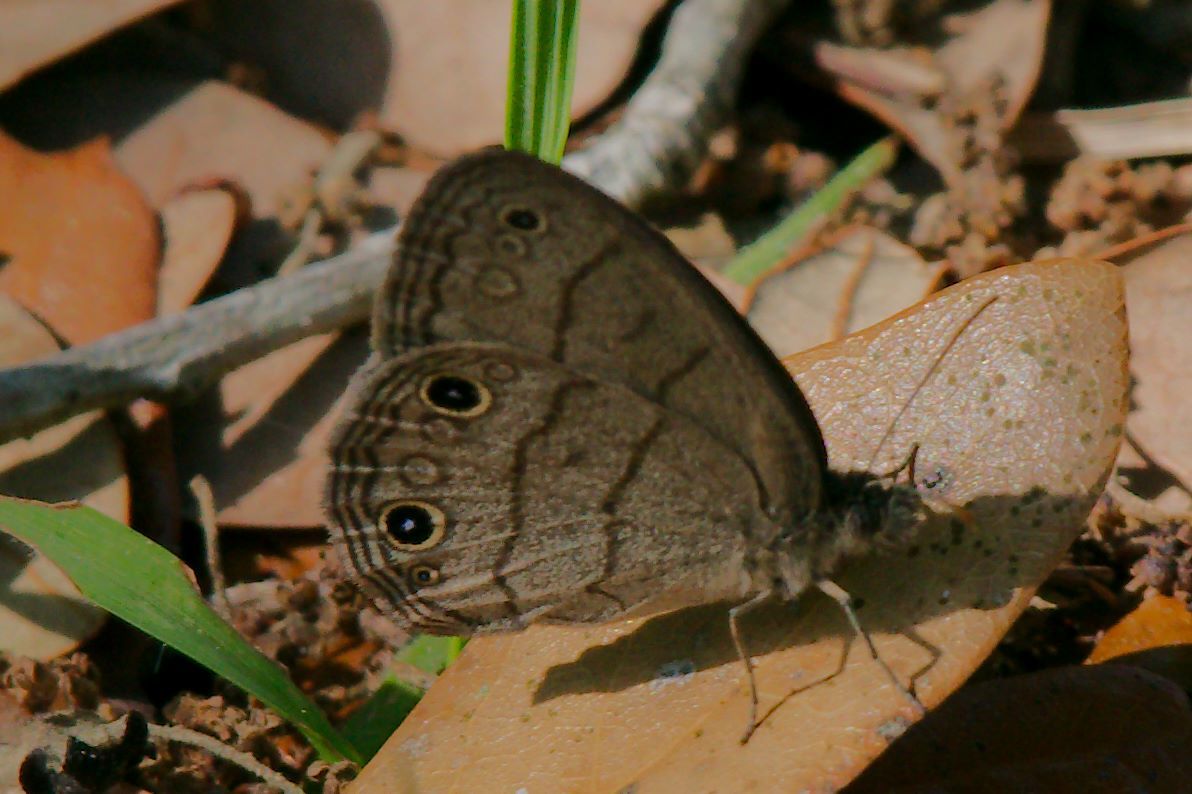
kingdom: Animalia
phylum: Arthropoda
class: Insecta
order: Lepidoptera
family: Nymphalidae
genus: Hermeuptychia
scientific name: Hermeuptychia hermes
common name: Hermes satyr
